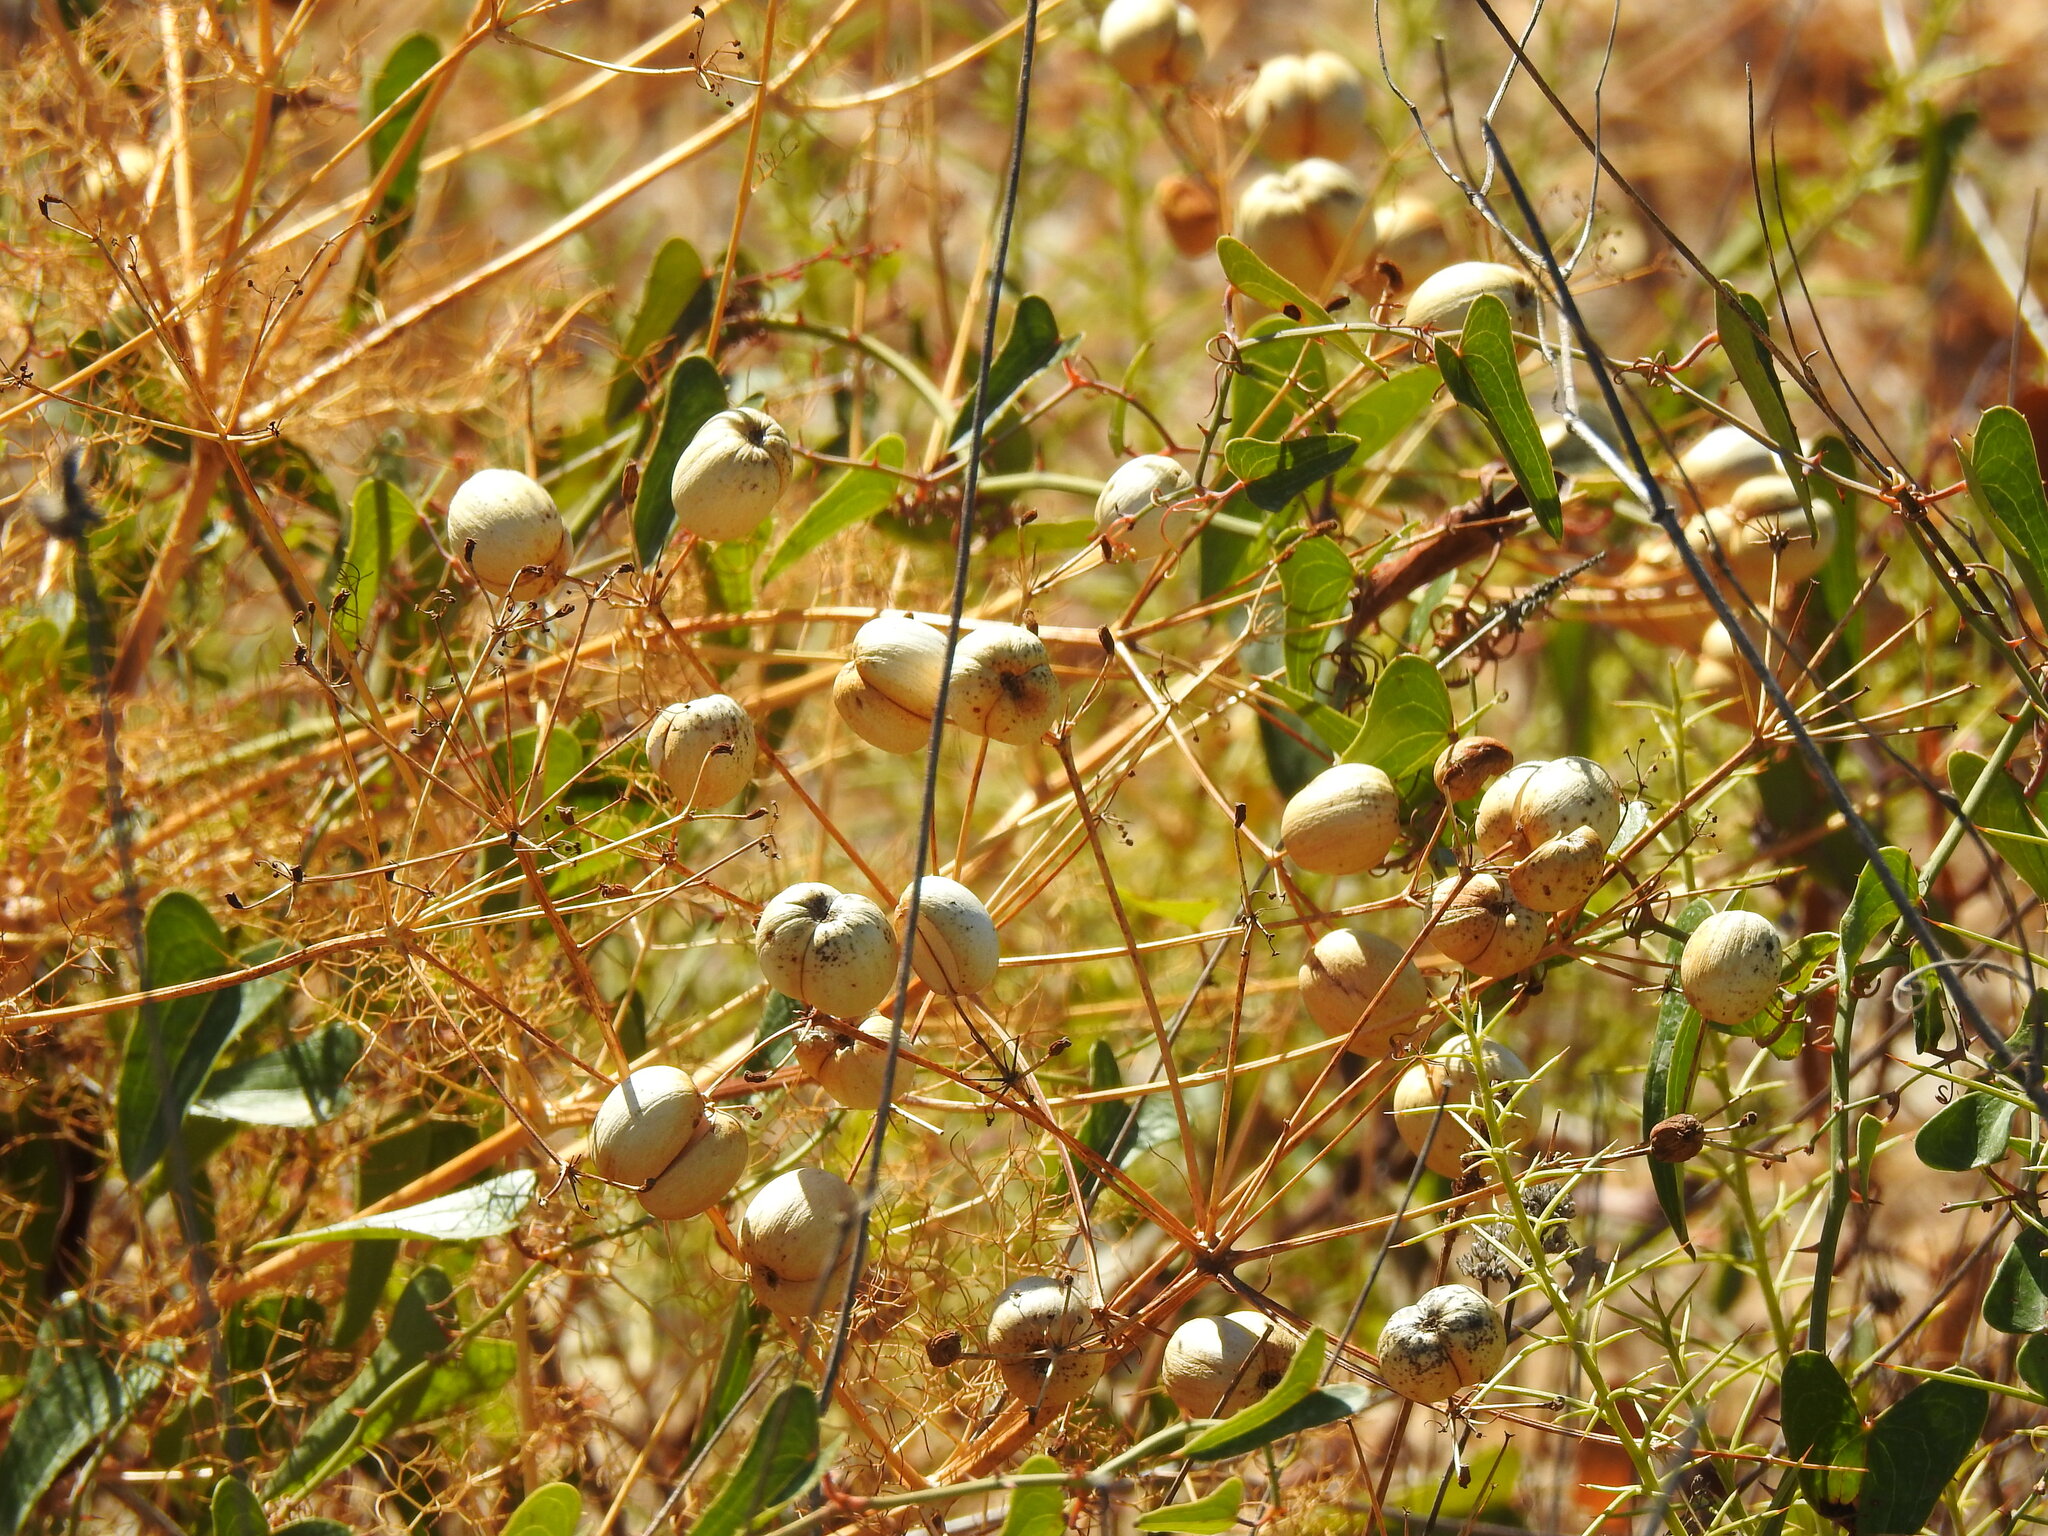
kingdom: Plantae
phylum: Tracheophyta
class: Magnoliopsida
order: Apiales
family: Apiaceae
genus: Prangos
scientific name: Prangos trifida
